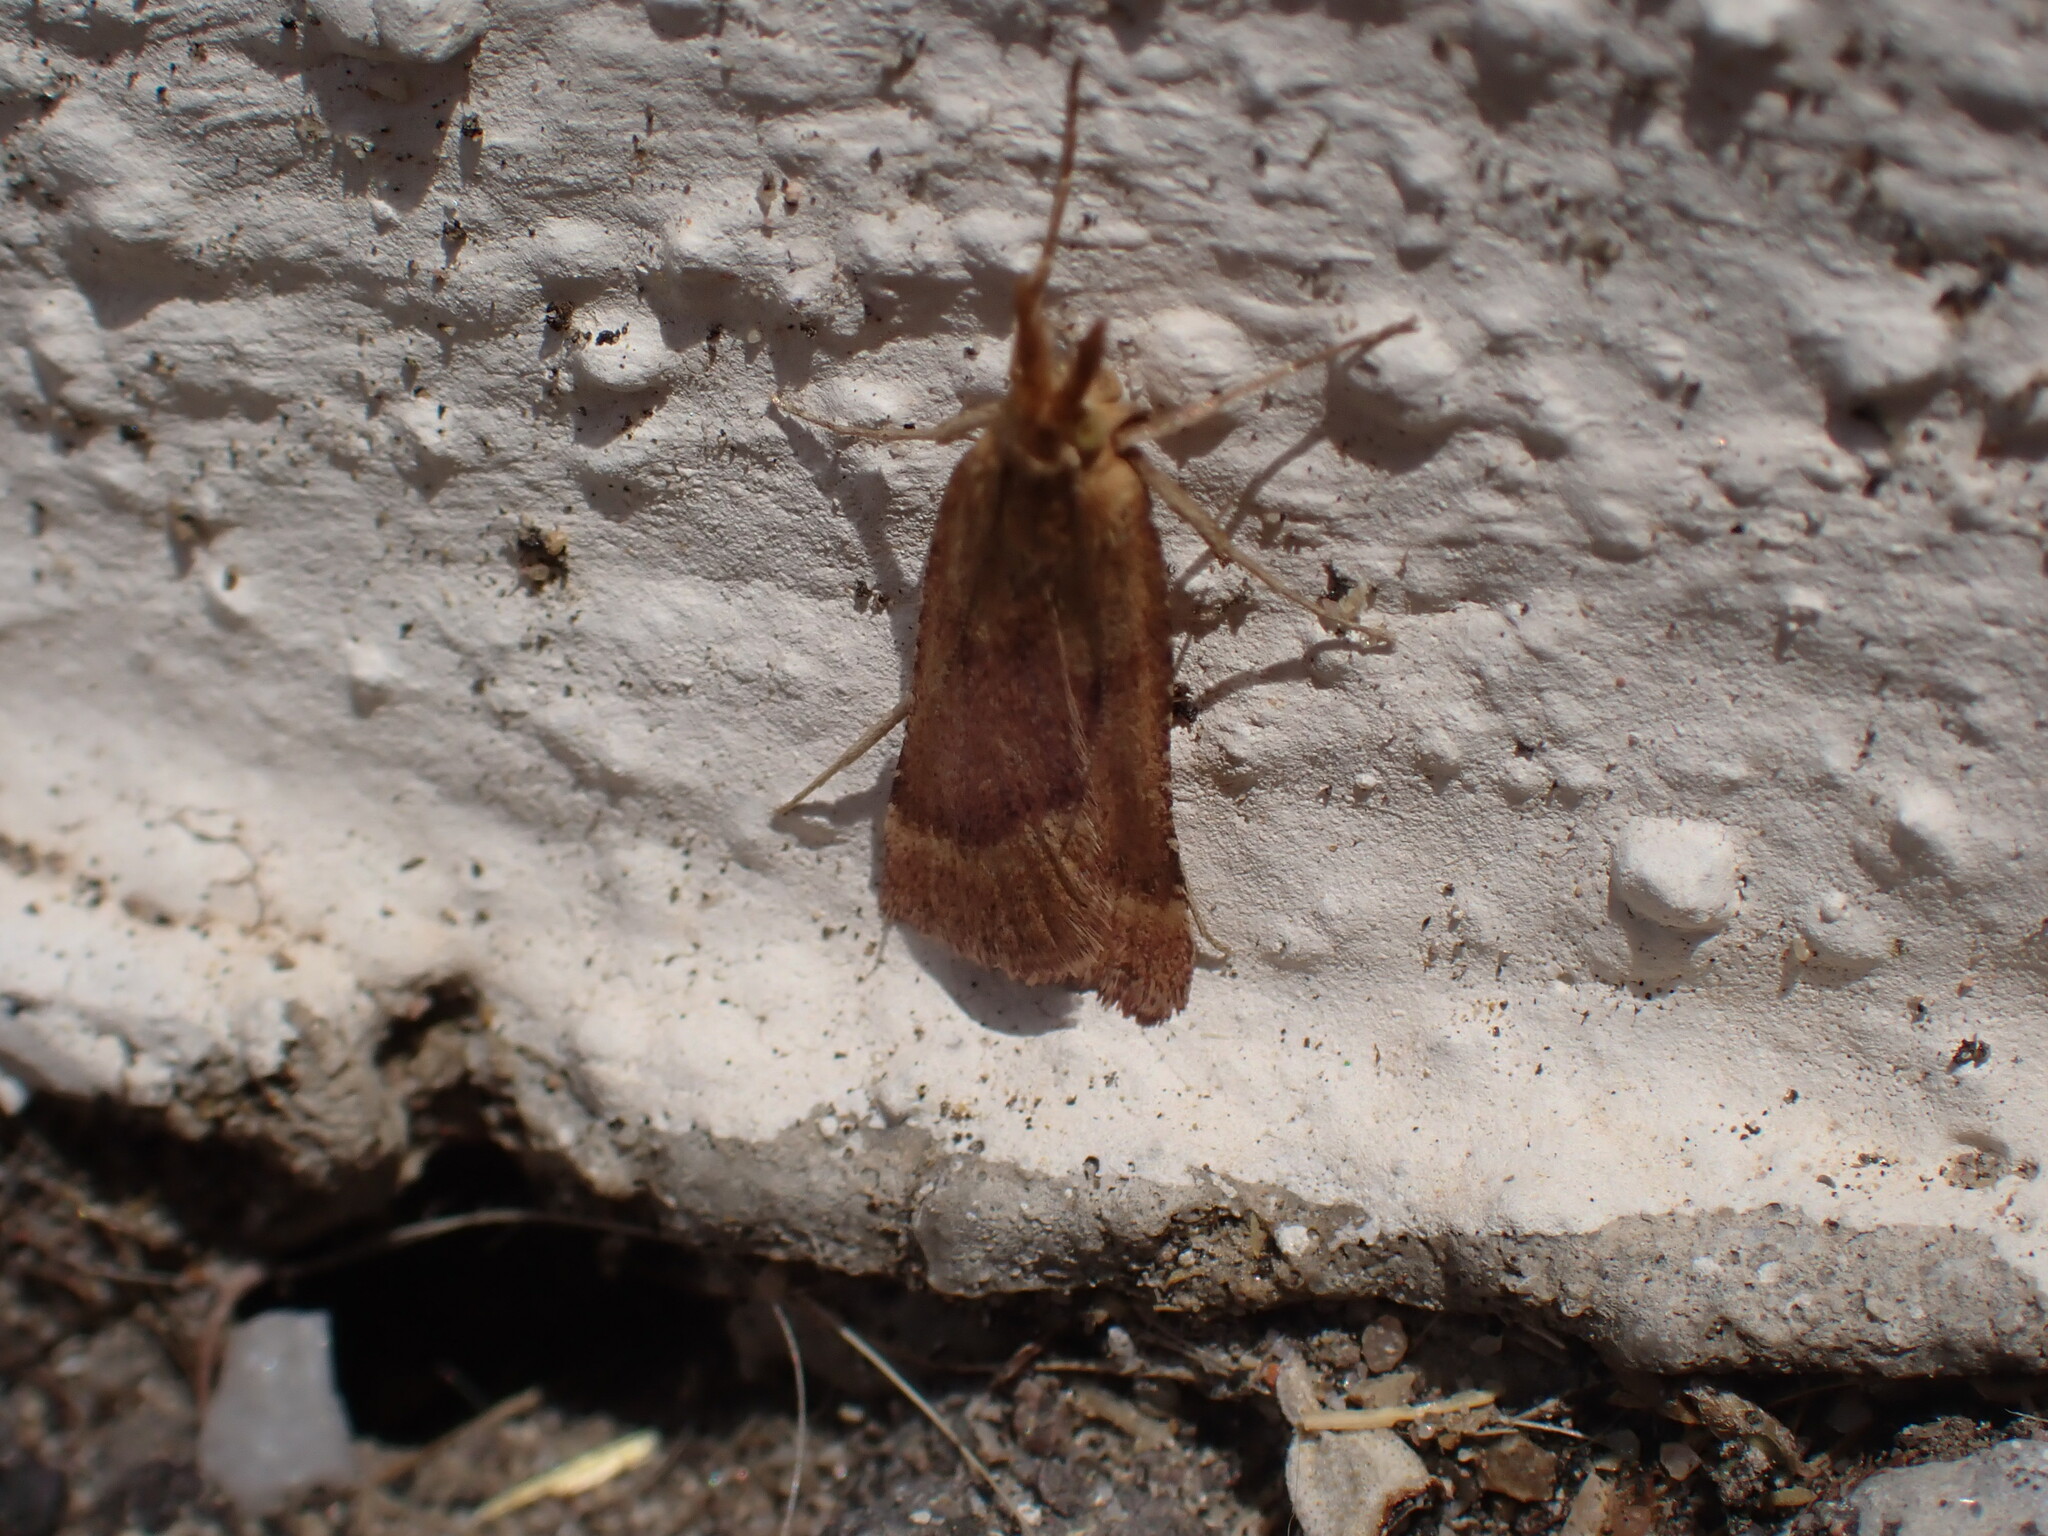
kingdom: Animalia
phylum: Arthropoda
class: Insecta
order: Lepidoptera
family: Pyralidae
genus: Synaphe
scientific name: Synaphe punctalis
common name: Long-legged tabby
